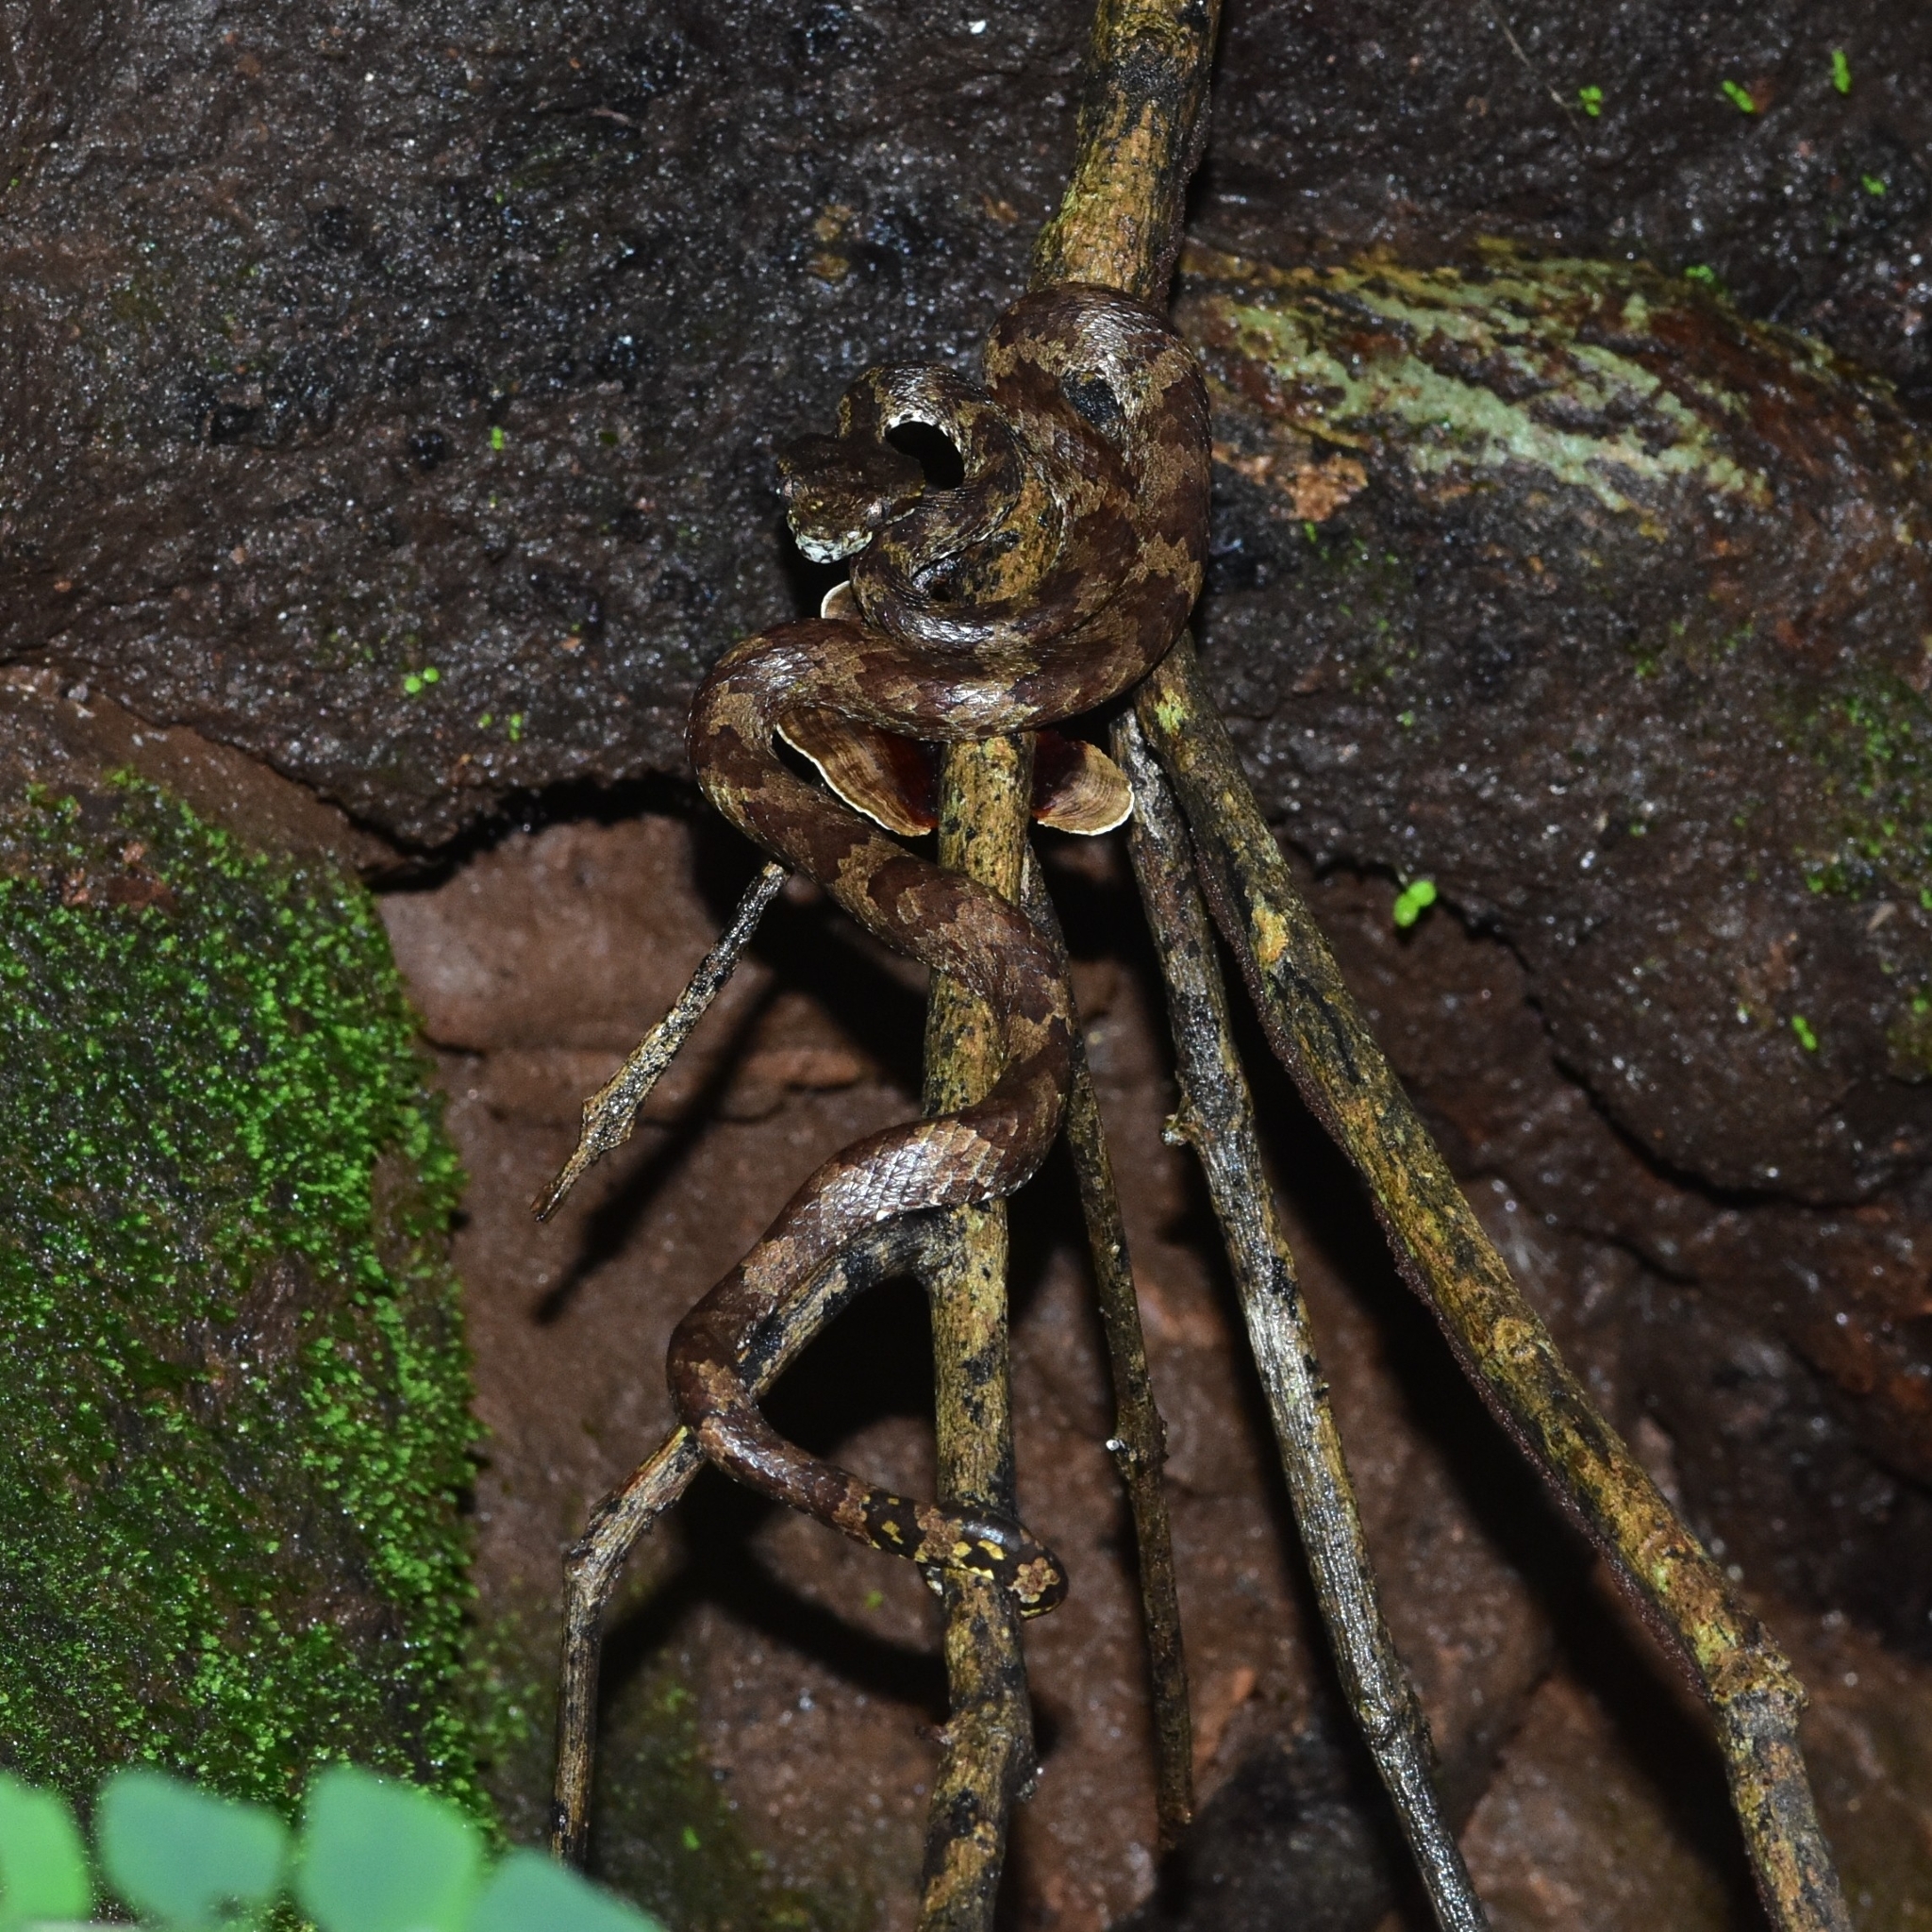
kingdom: Animalia
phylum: Chordata
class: Squamata
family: Viperidae
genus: Craspedocephalus
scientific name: Craspedocephalus anamallensis
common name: Malabarian pit viper
